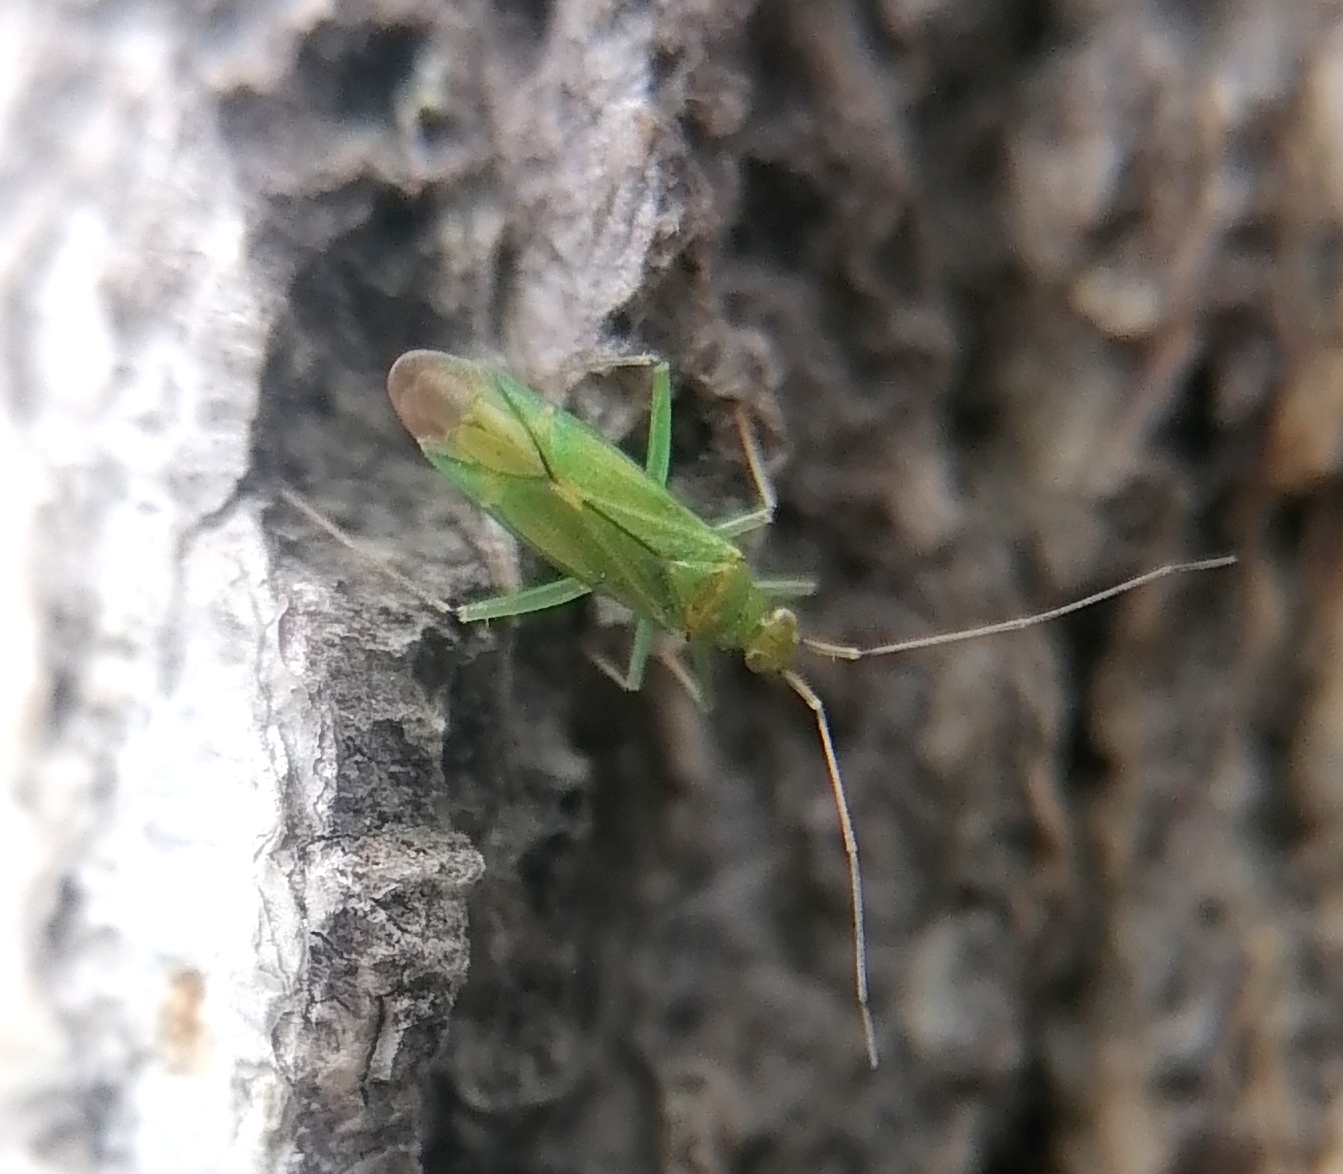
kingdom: Animalia
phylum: Arthropoda
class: Insecta
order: Hemiptera
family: Miridae
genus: Blepharidopterus
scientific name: Blepharidopterus angulatus
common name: Plant bug
